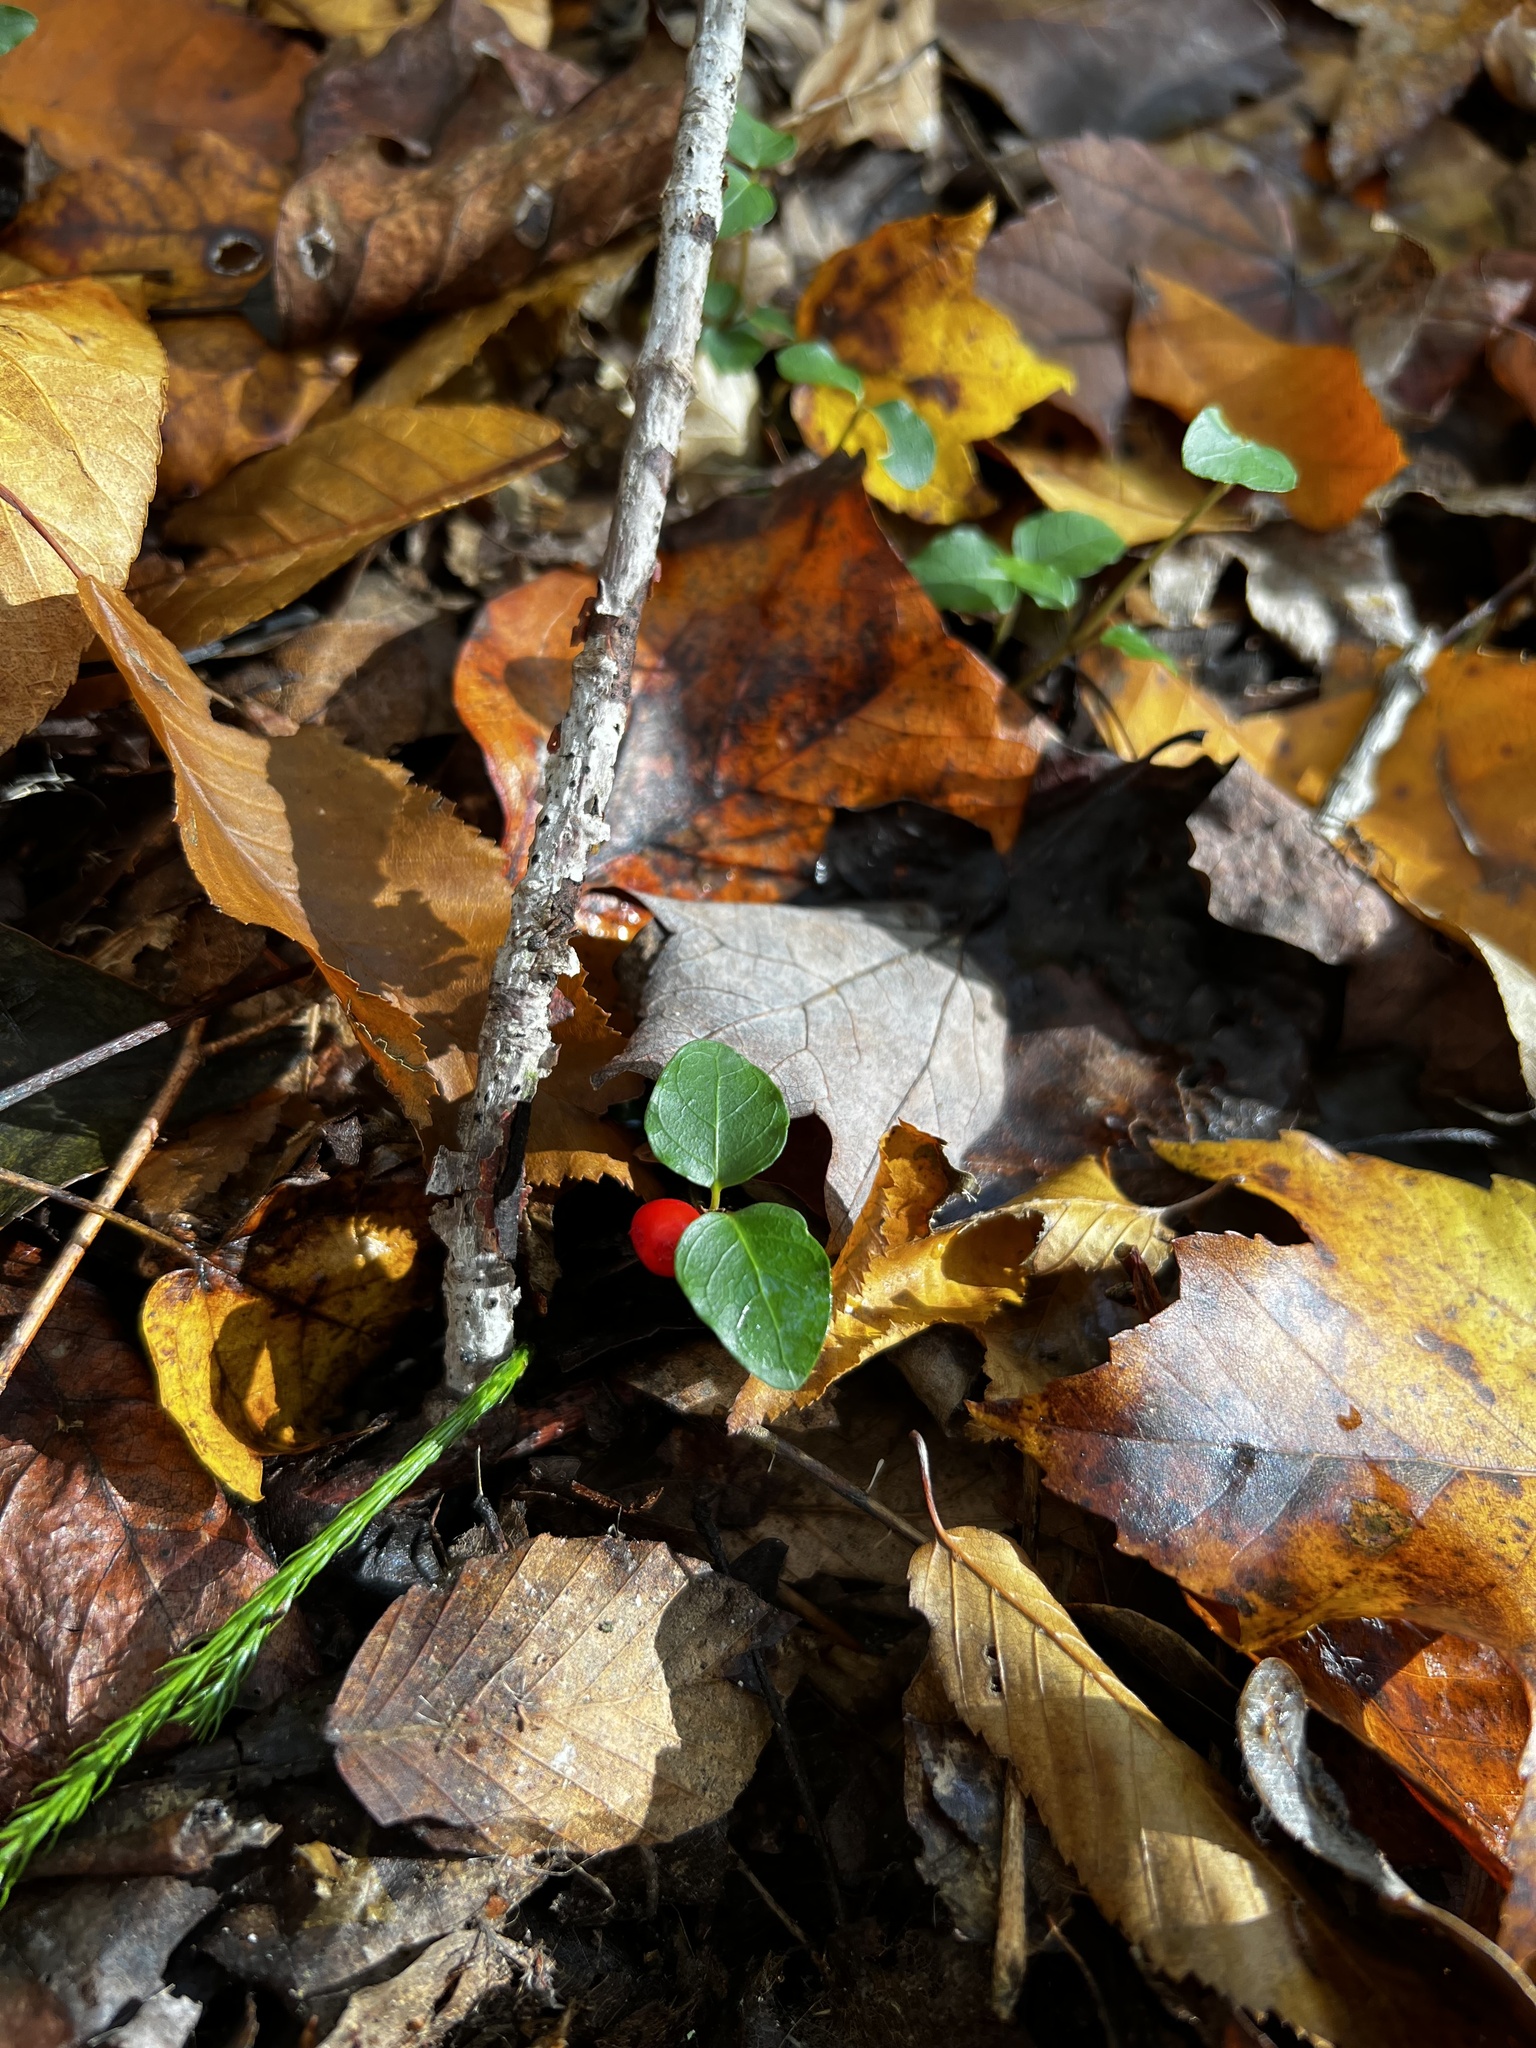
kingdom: Plantae
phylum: Tracheophyta
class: Magnoliopsida
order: Gentianales
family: Rubiaceae
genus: Mitchella
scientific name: Mitchella repens
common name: Partridge-berry
